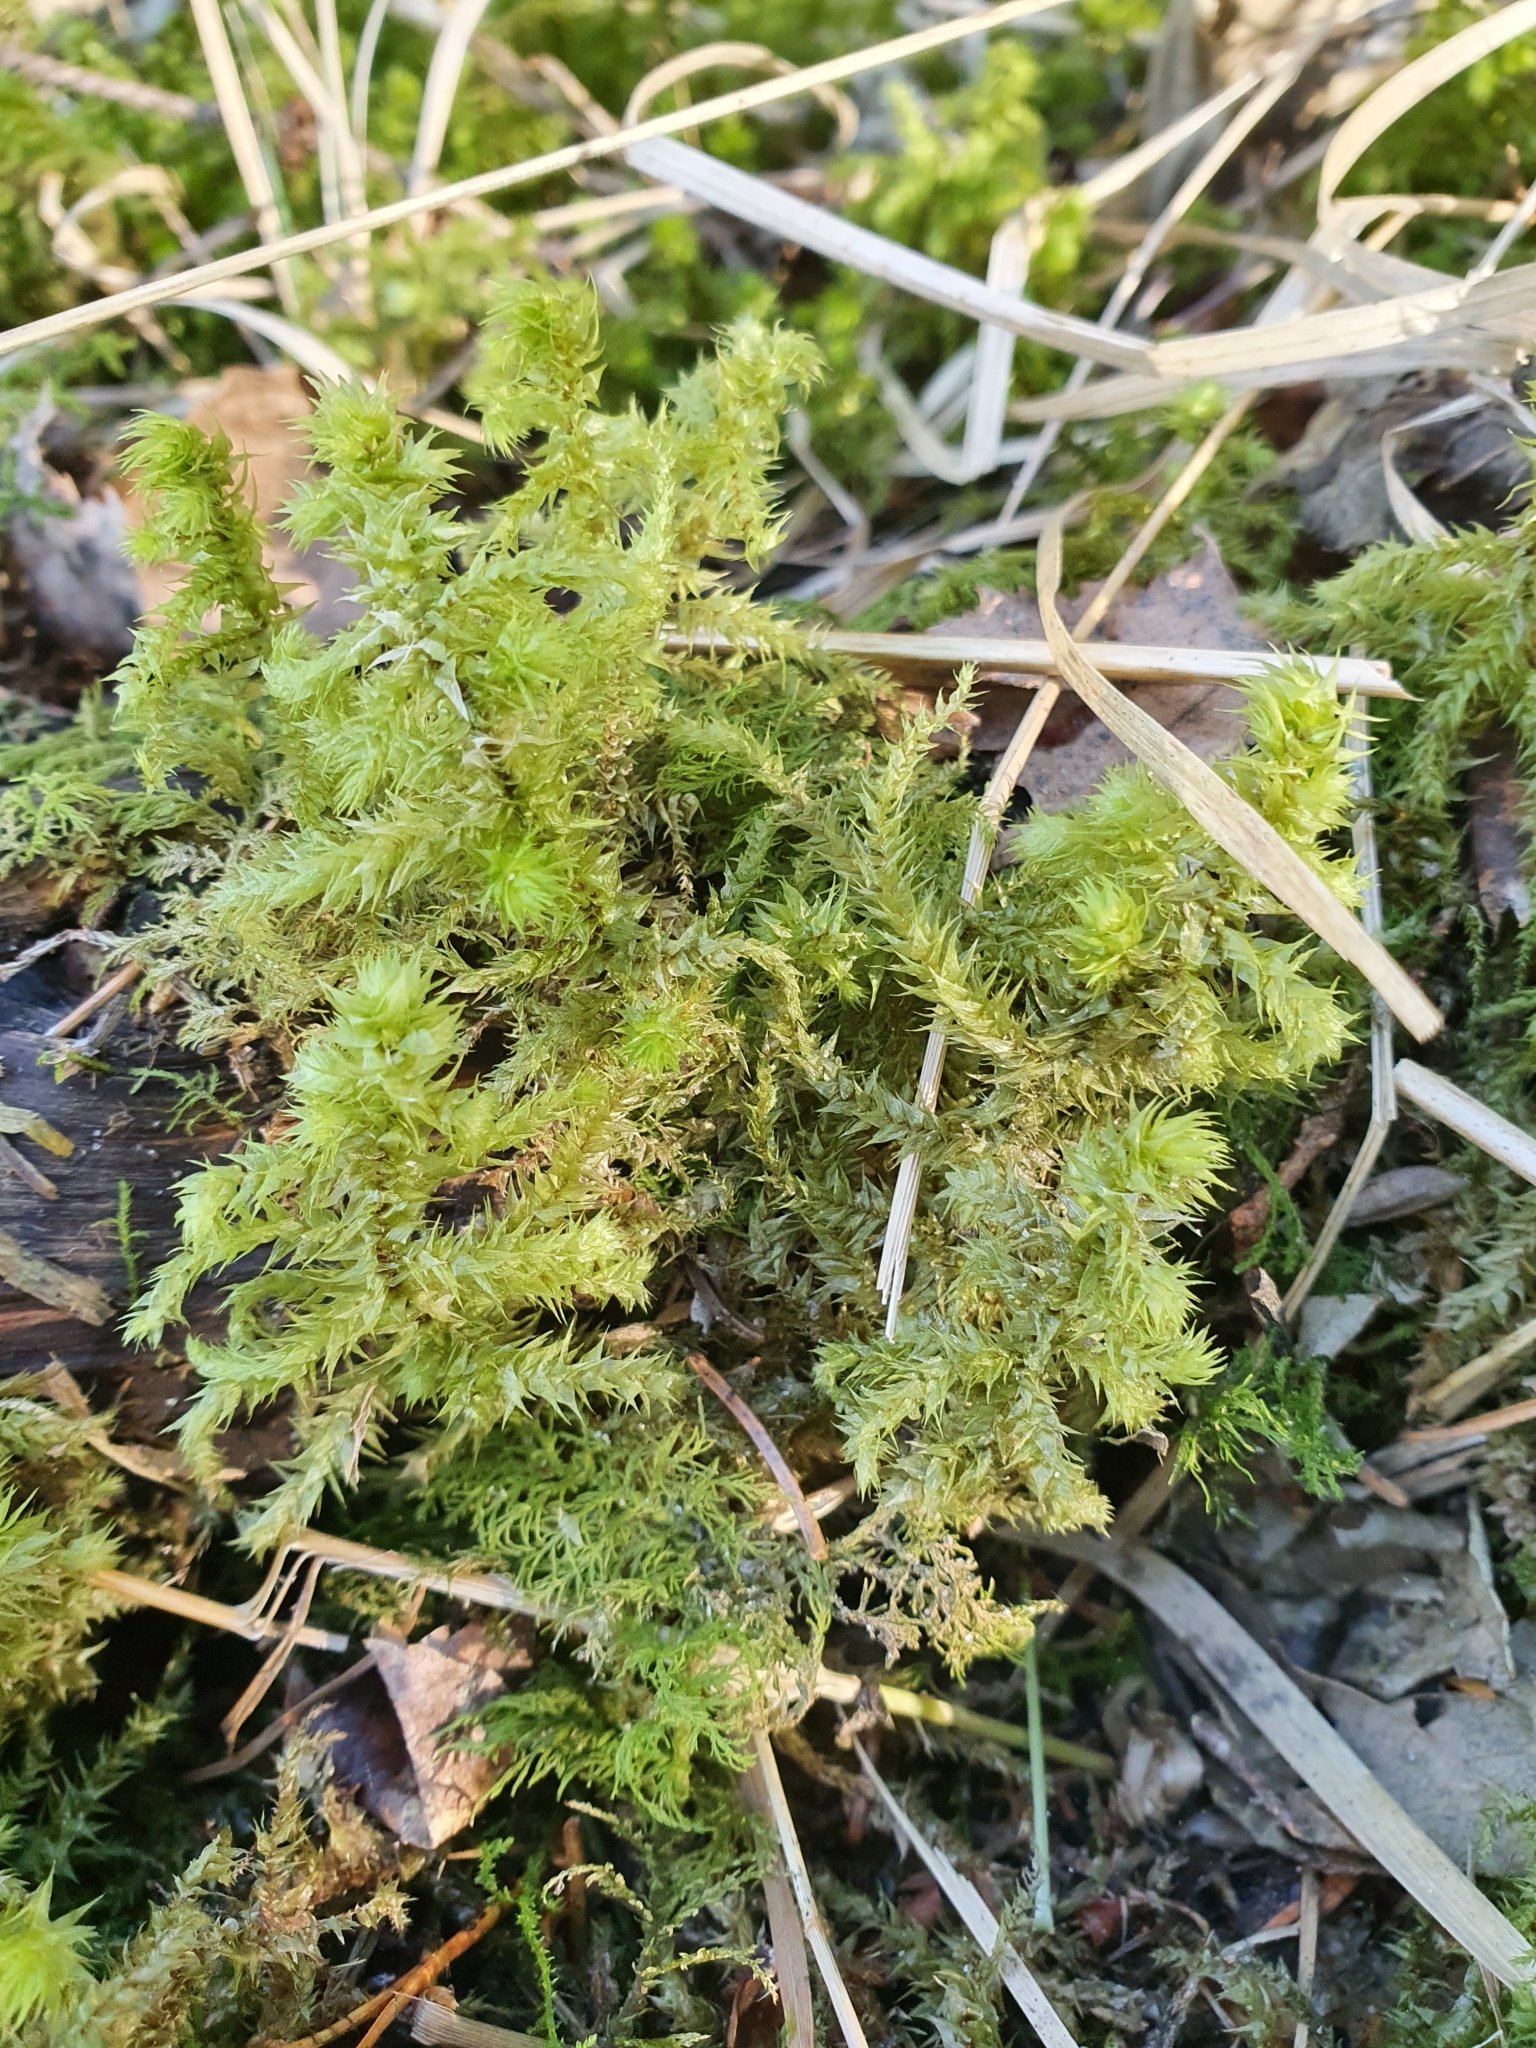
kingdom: Plantae
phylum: Bryophyta
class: Bryopsida
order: Hypnales
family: Hylocomiaceae
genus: Hylocomiadelphus
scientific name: Hylocomiadelphus triquetrus
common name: Rough goose neck moss
